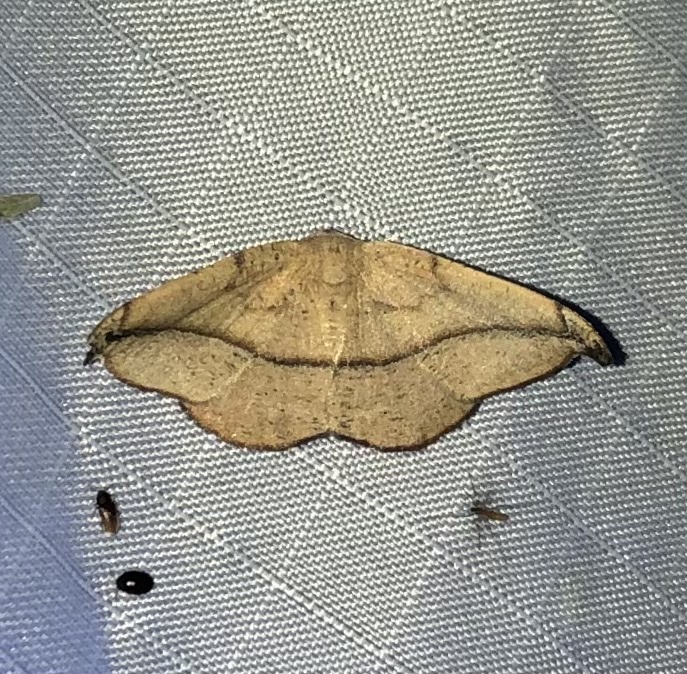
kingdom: Animalia
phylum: Arthropoda
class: Insecta
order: Lepidoptera
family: Geometridae
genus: Patalene
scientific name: Patalene olyzonaria
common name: Juniper geometer moth
